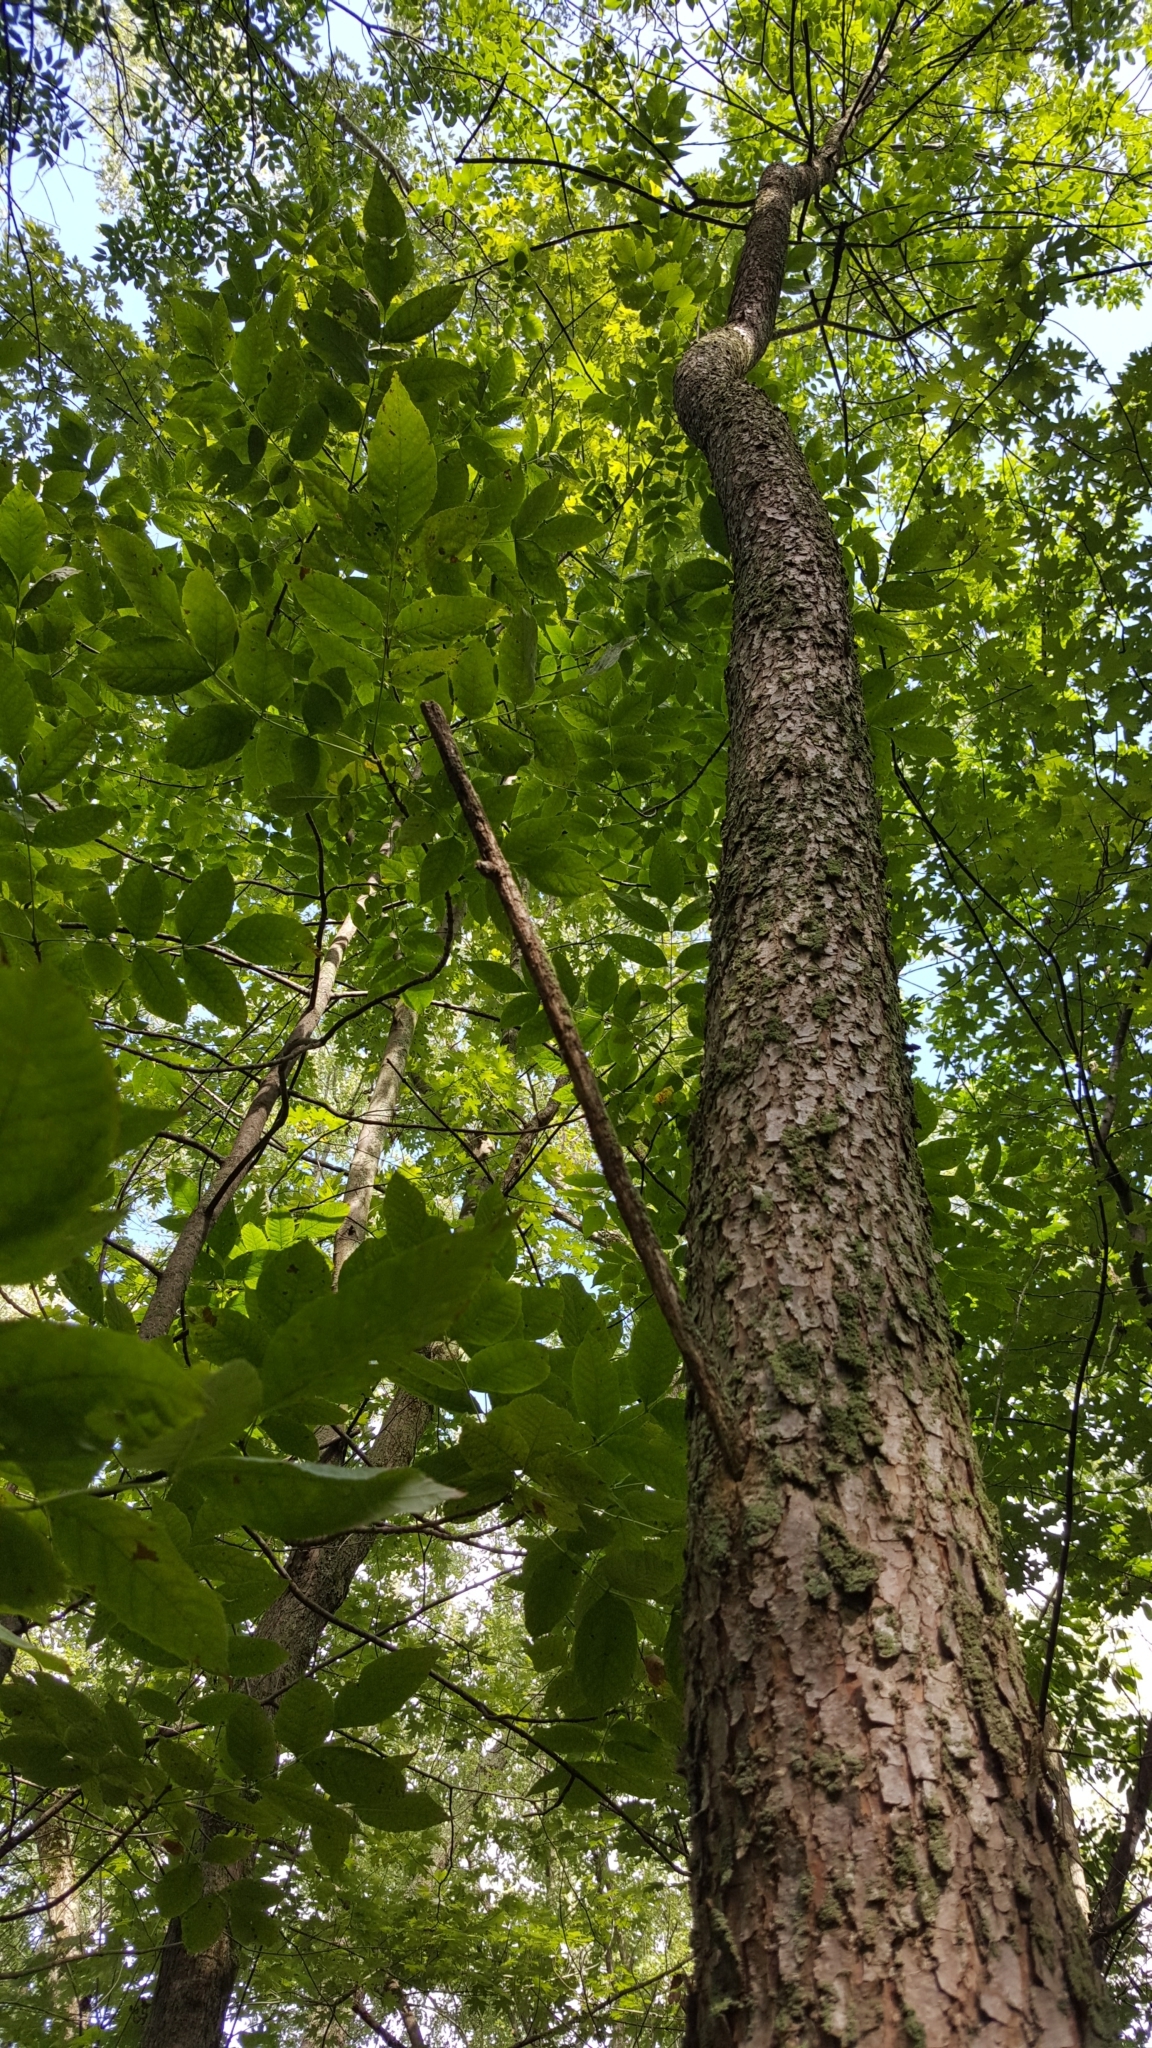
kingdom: Plantae
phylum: Tracheophyta
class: Magnoliopsida
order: Lamiales
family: Oleaceae
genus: Fraxinus
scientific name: Fraxinus nigra
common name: Black ash
